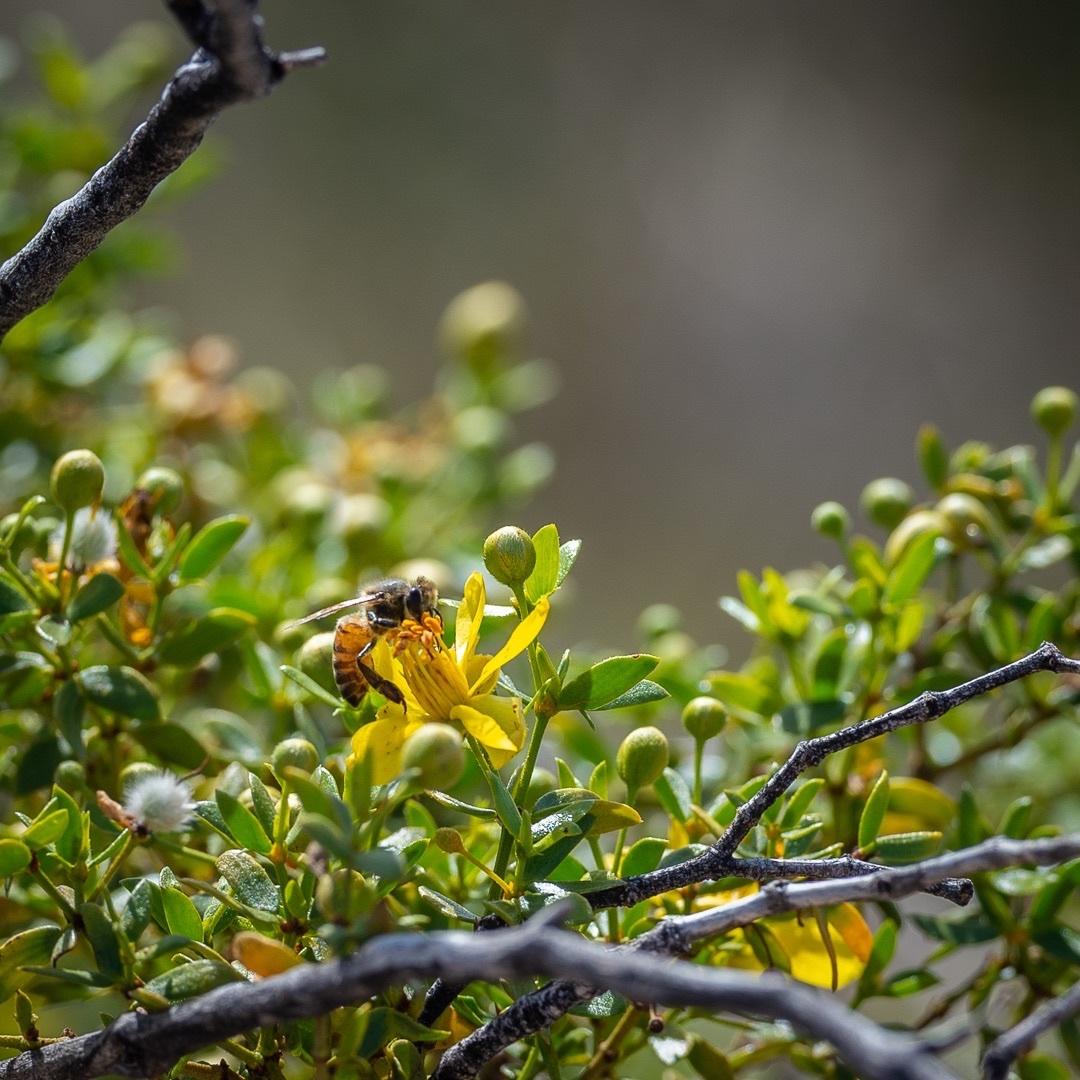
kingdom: Animalia
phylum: Arthropoda
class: Insecta
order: Hymenoptera
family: Apidae
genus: Apis
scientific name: Apis mellifera
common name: Honey bee
